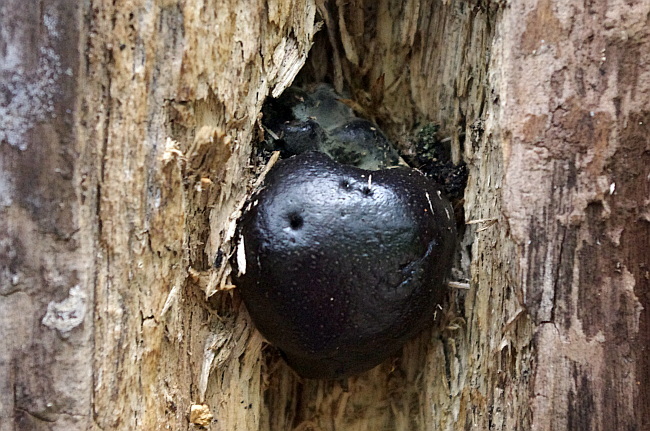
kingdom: Fungi
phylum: Ascomycota
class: Sordariomycetes
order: Xylariales
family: Hypoxylaceae
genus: Daldinia
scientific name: Daldinia loculata
